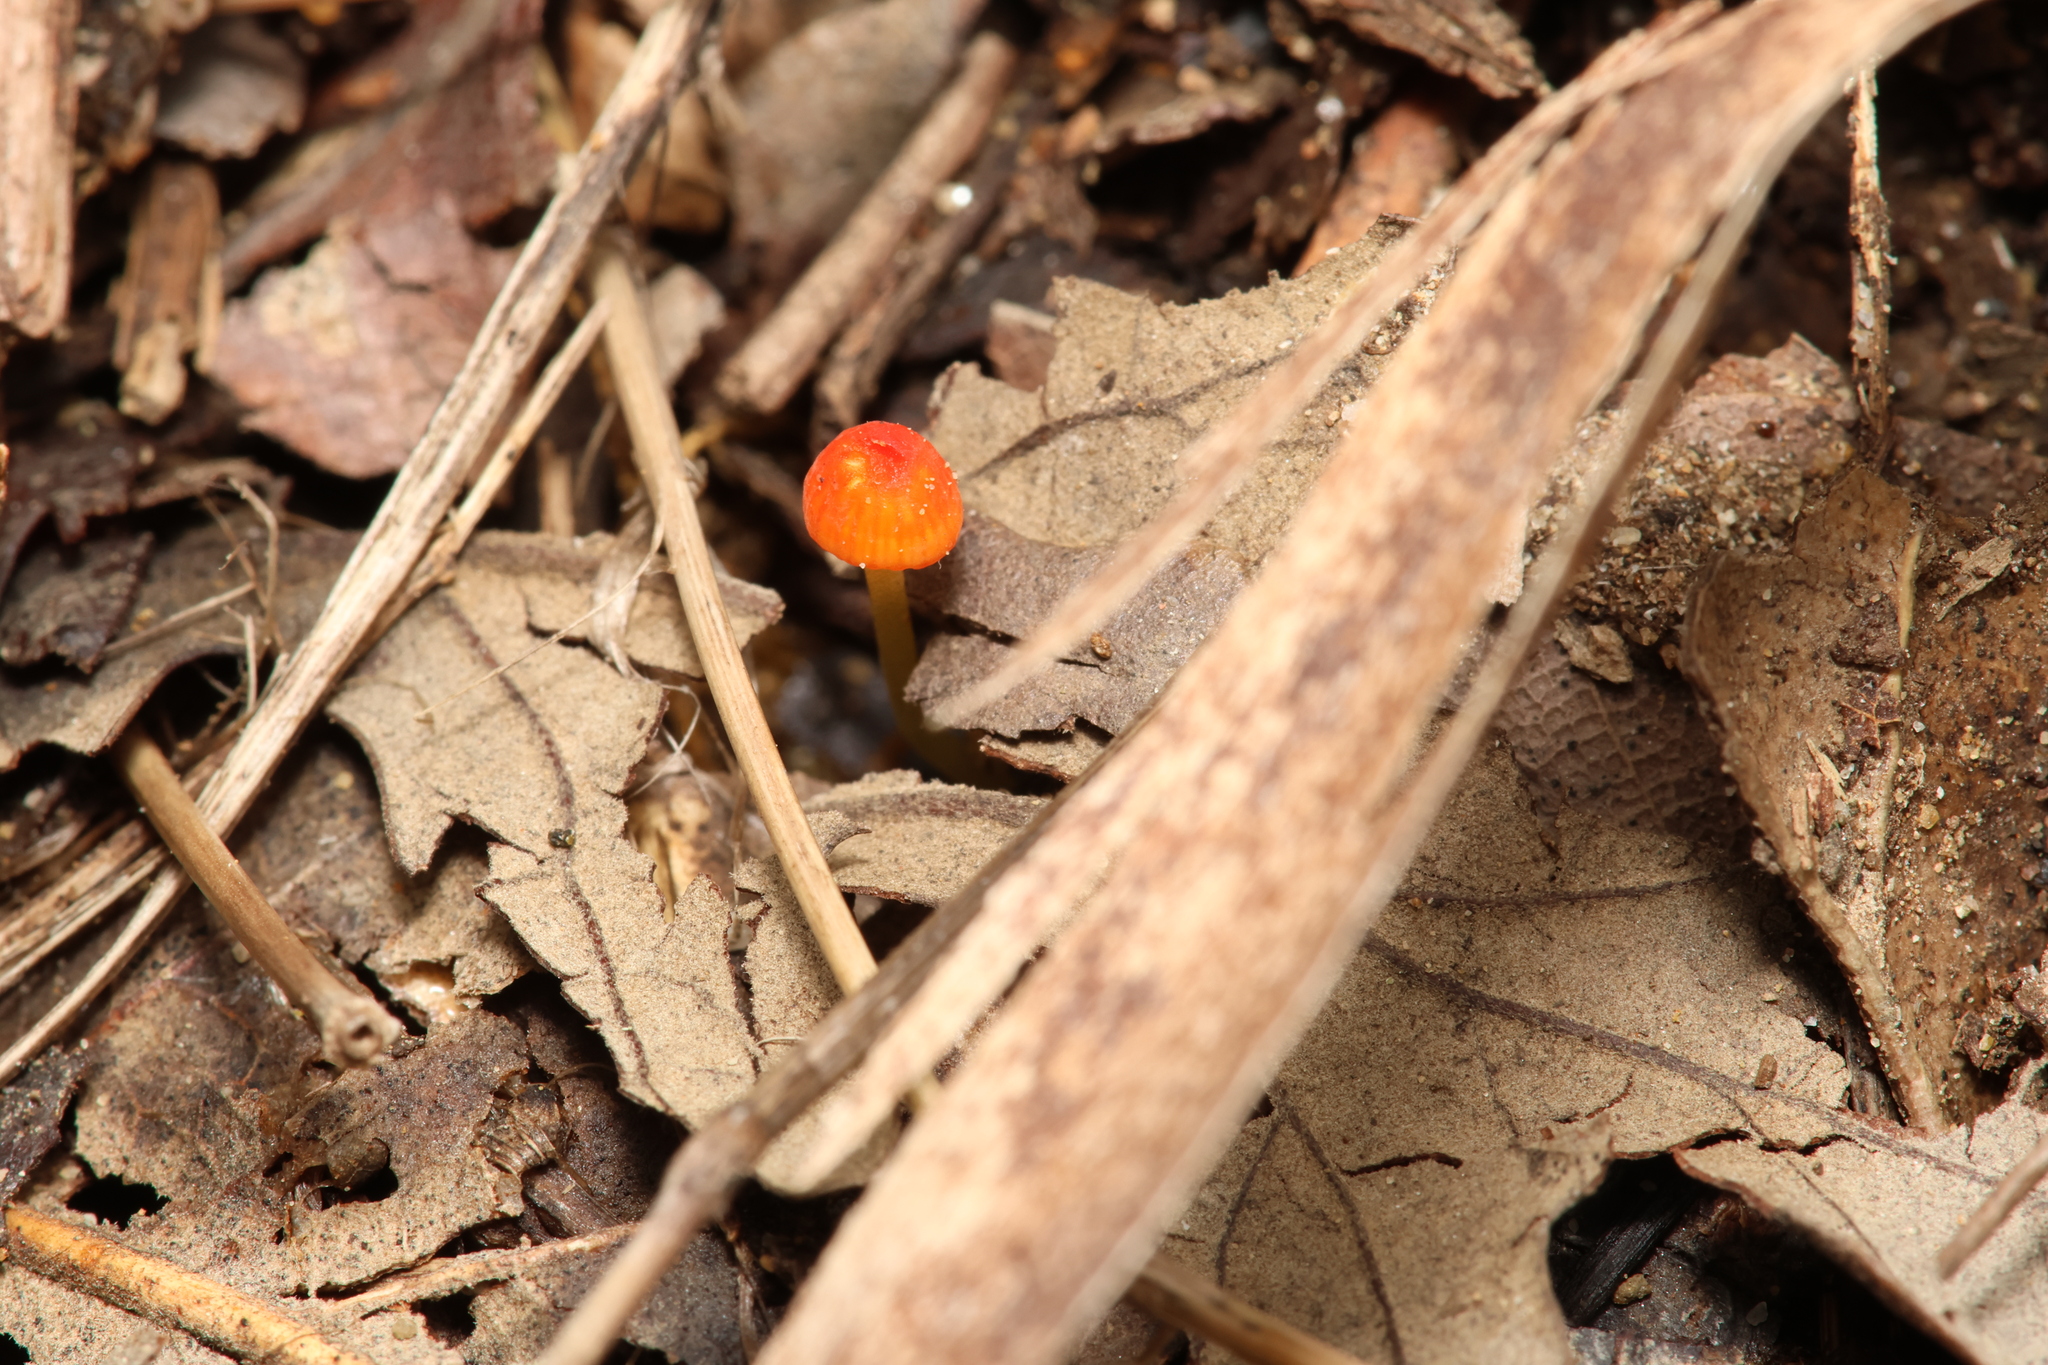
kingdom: Fungi
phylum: Basidiomycota
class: Agaricomycetes
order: Agaricales
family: Mycenaceae
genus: Mycena
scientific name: Mycena acicula
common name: Orange bonnet
